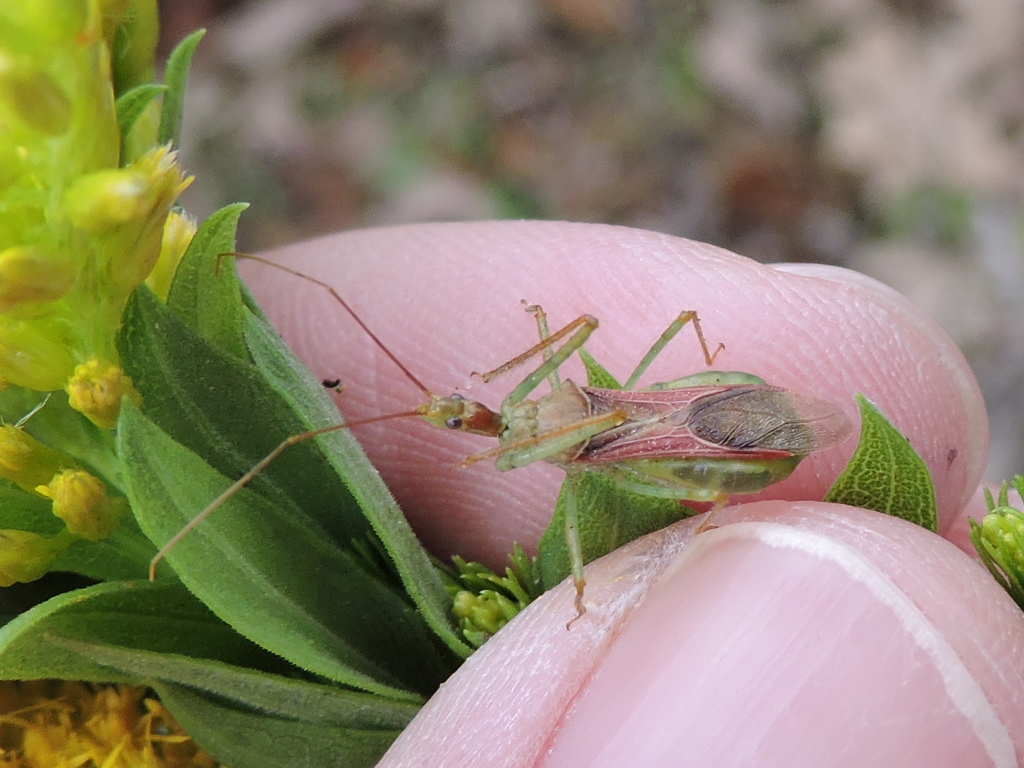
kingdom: Animalia
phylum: Arthropoda
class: Insecta
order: Hemiptera
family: Reduviidae
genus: Zelus
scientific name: Zelus renardii
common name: Assassin bug
